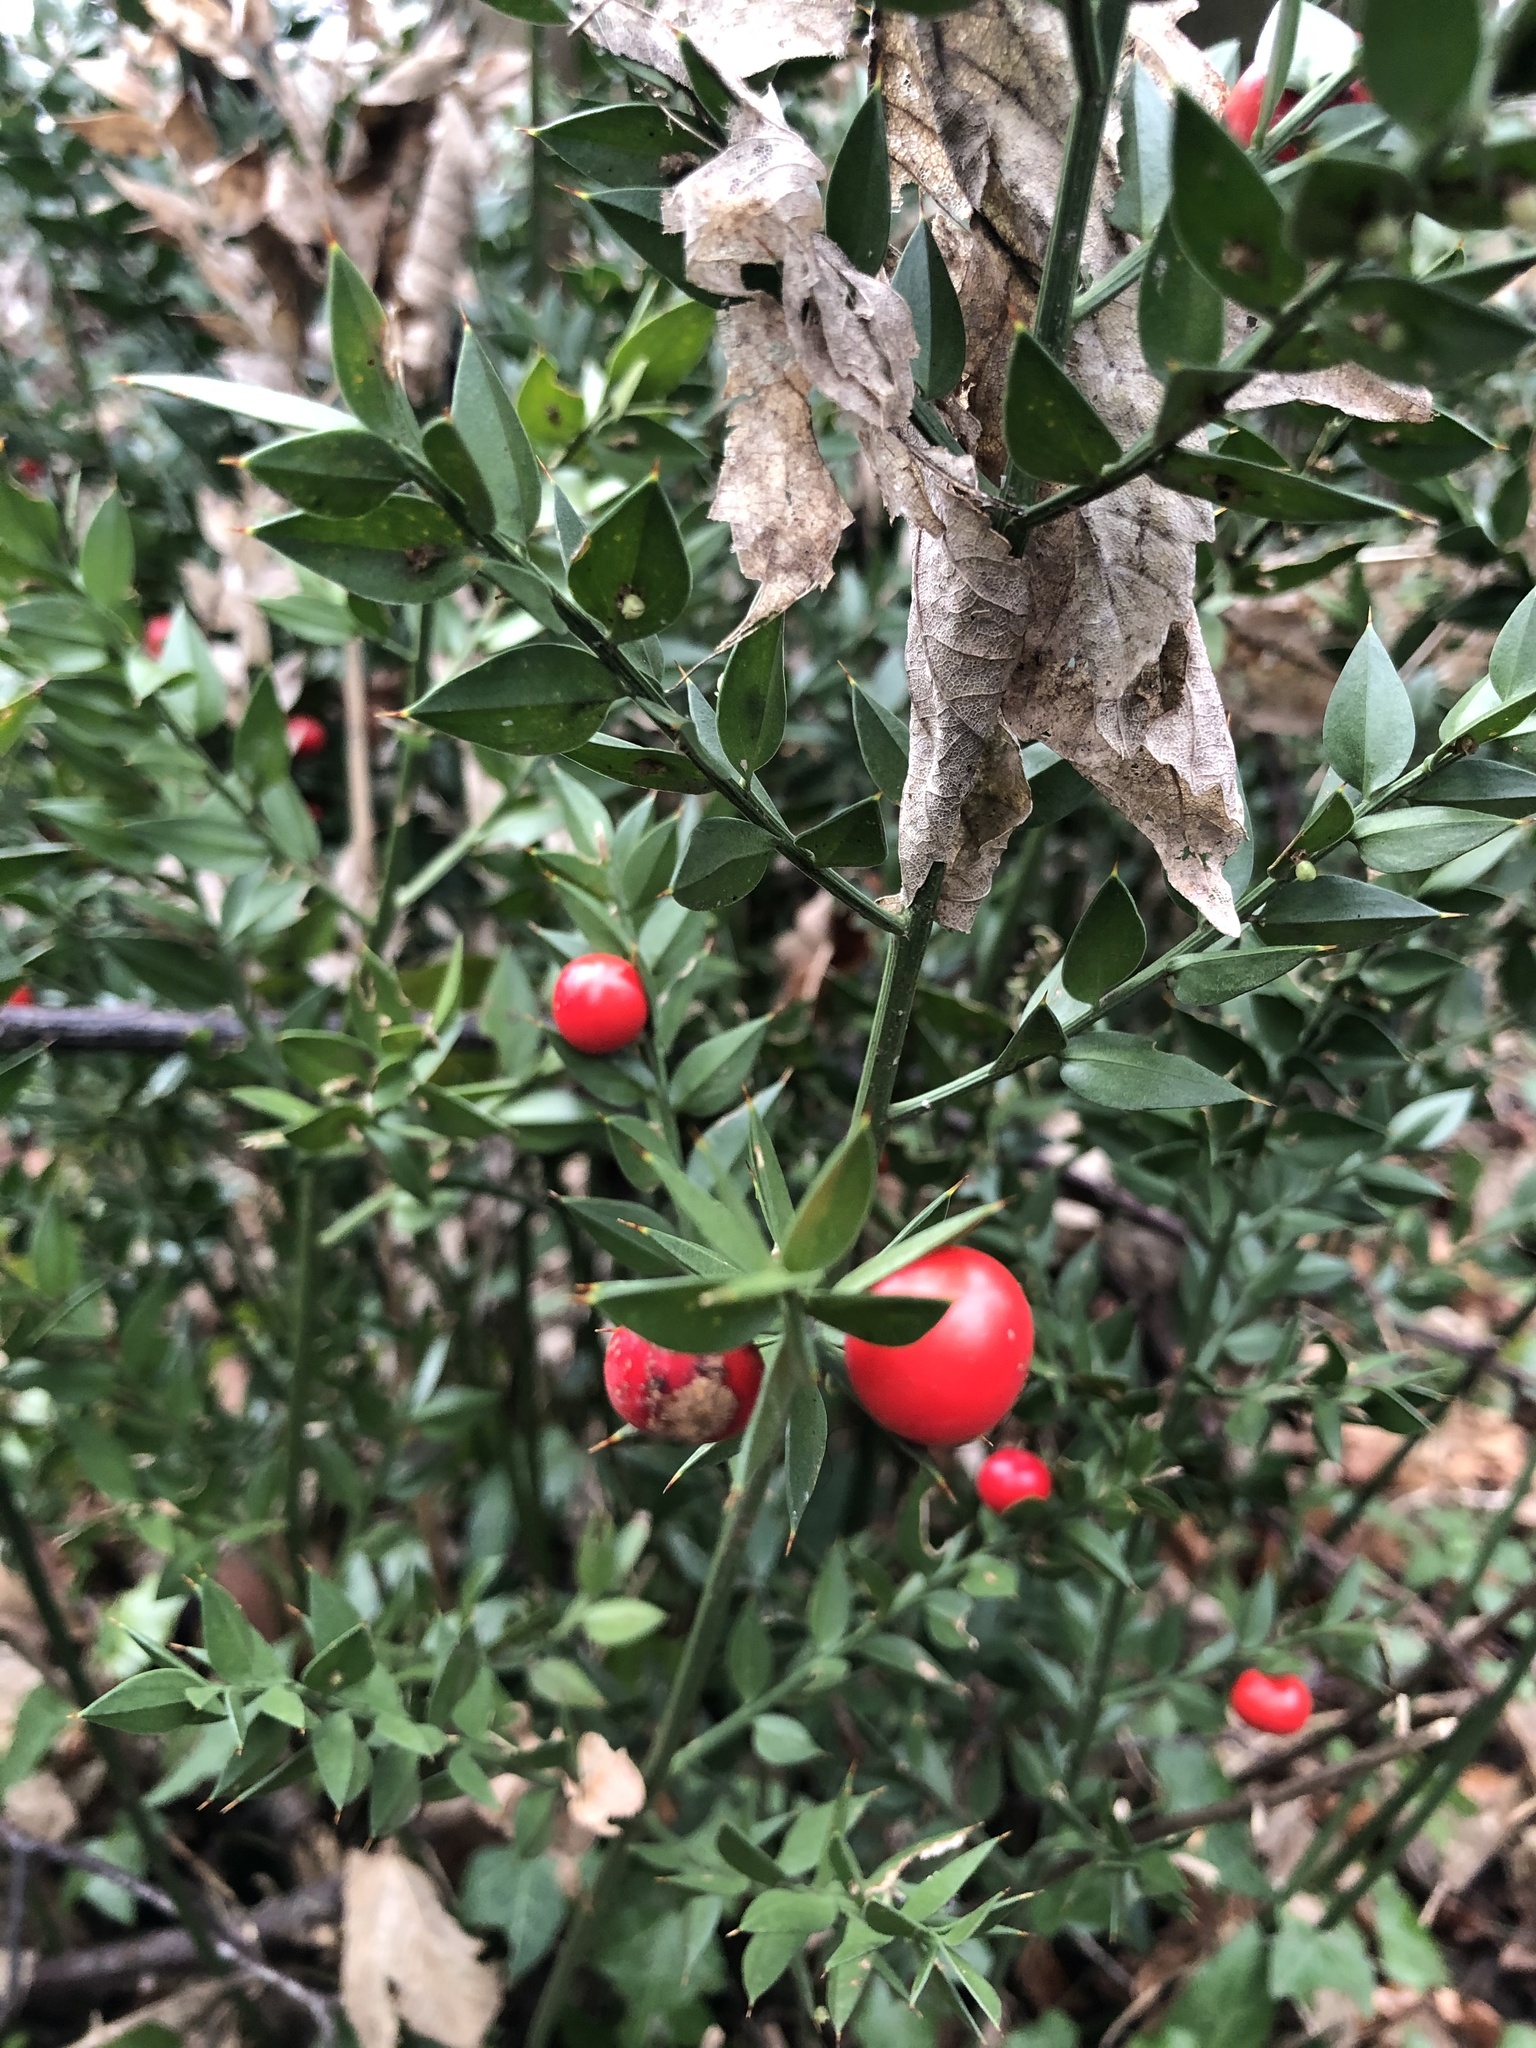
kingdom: Plantae
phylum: Tracheophyta
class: Liliopsida
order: Asparagales
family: Asparagaceae
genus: Ruscus
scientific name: Ruscus aculeatus
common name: Butcher's-broom
